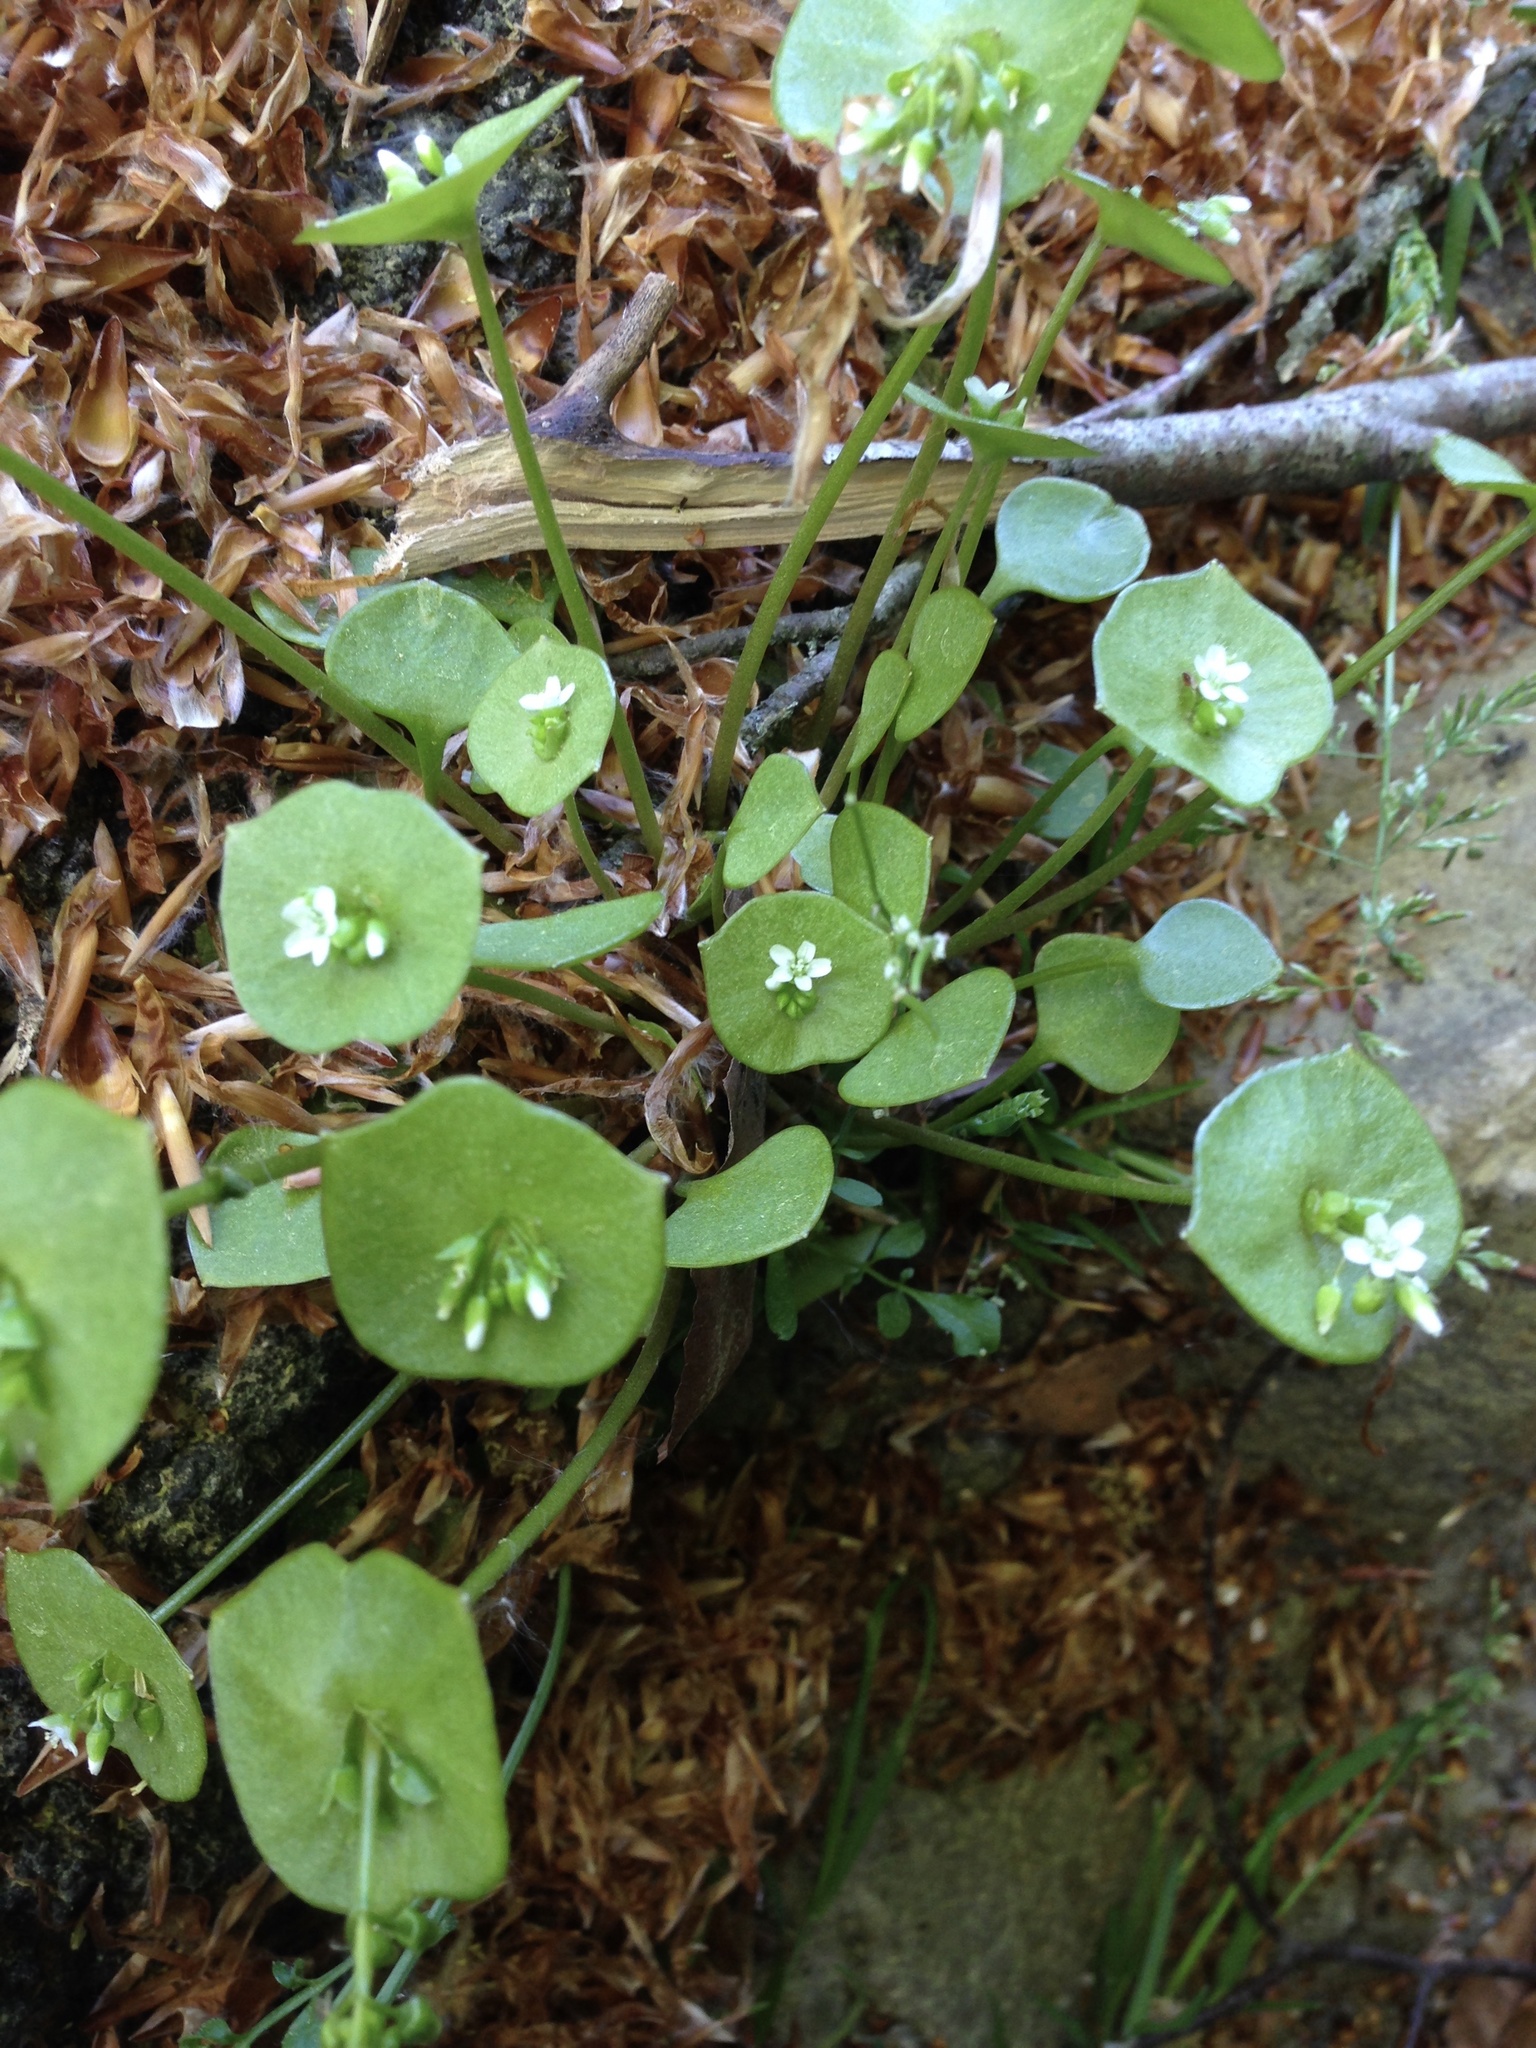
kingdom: Plantae
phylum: Tracheophyta
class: Magnoliopsida
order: Caryophyllales
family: Montiaceae
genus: Claytonia
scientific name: Claytonia perfoliata
